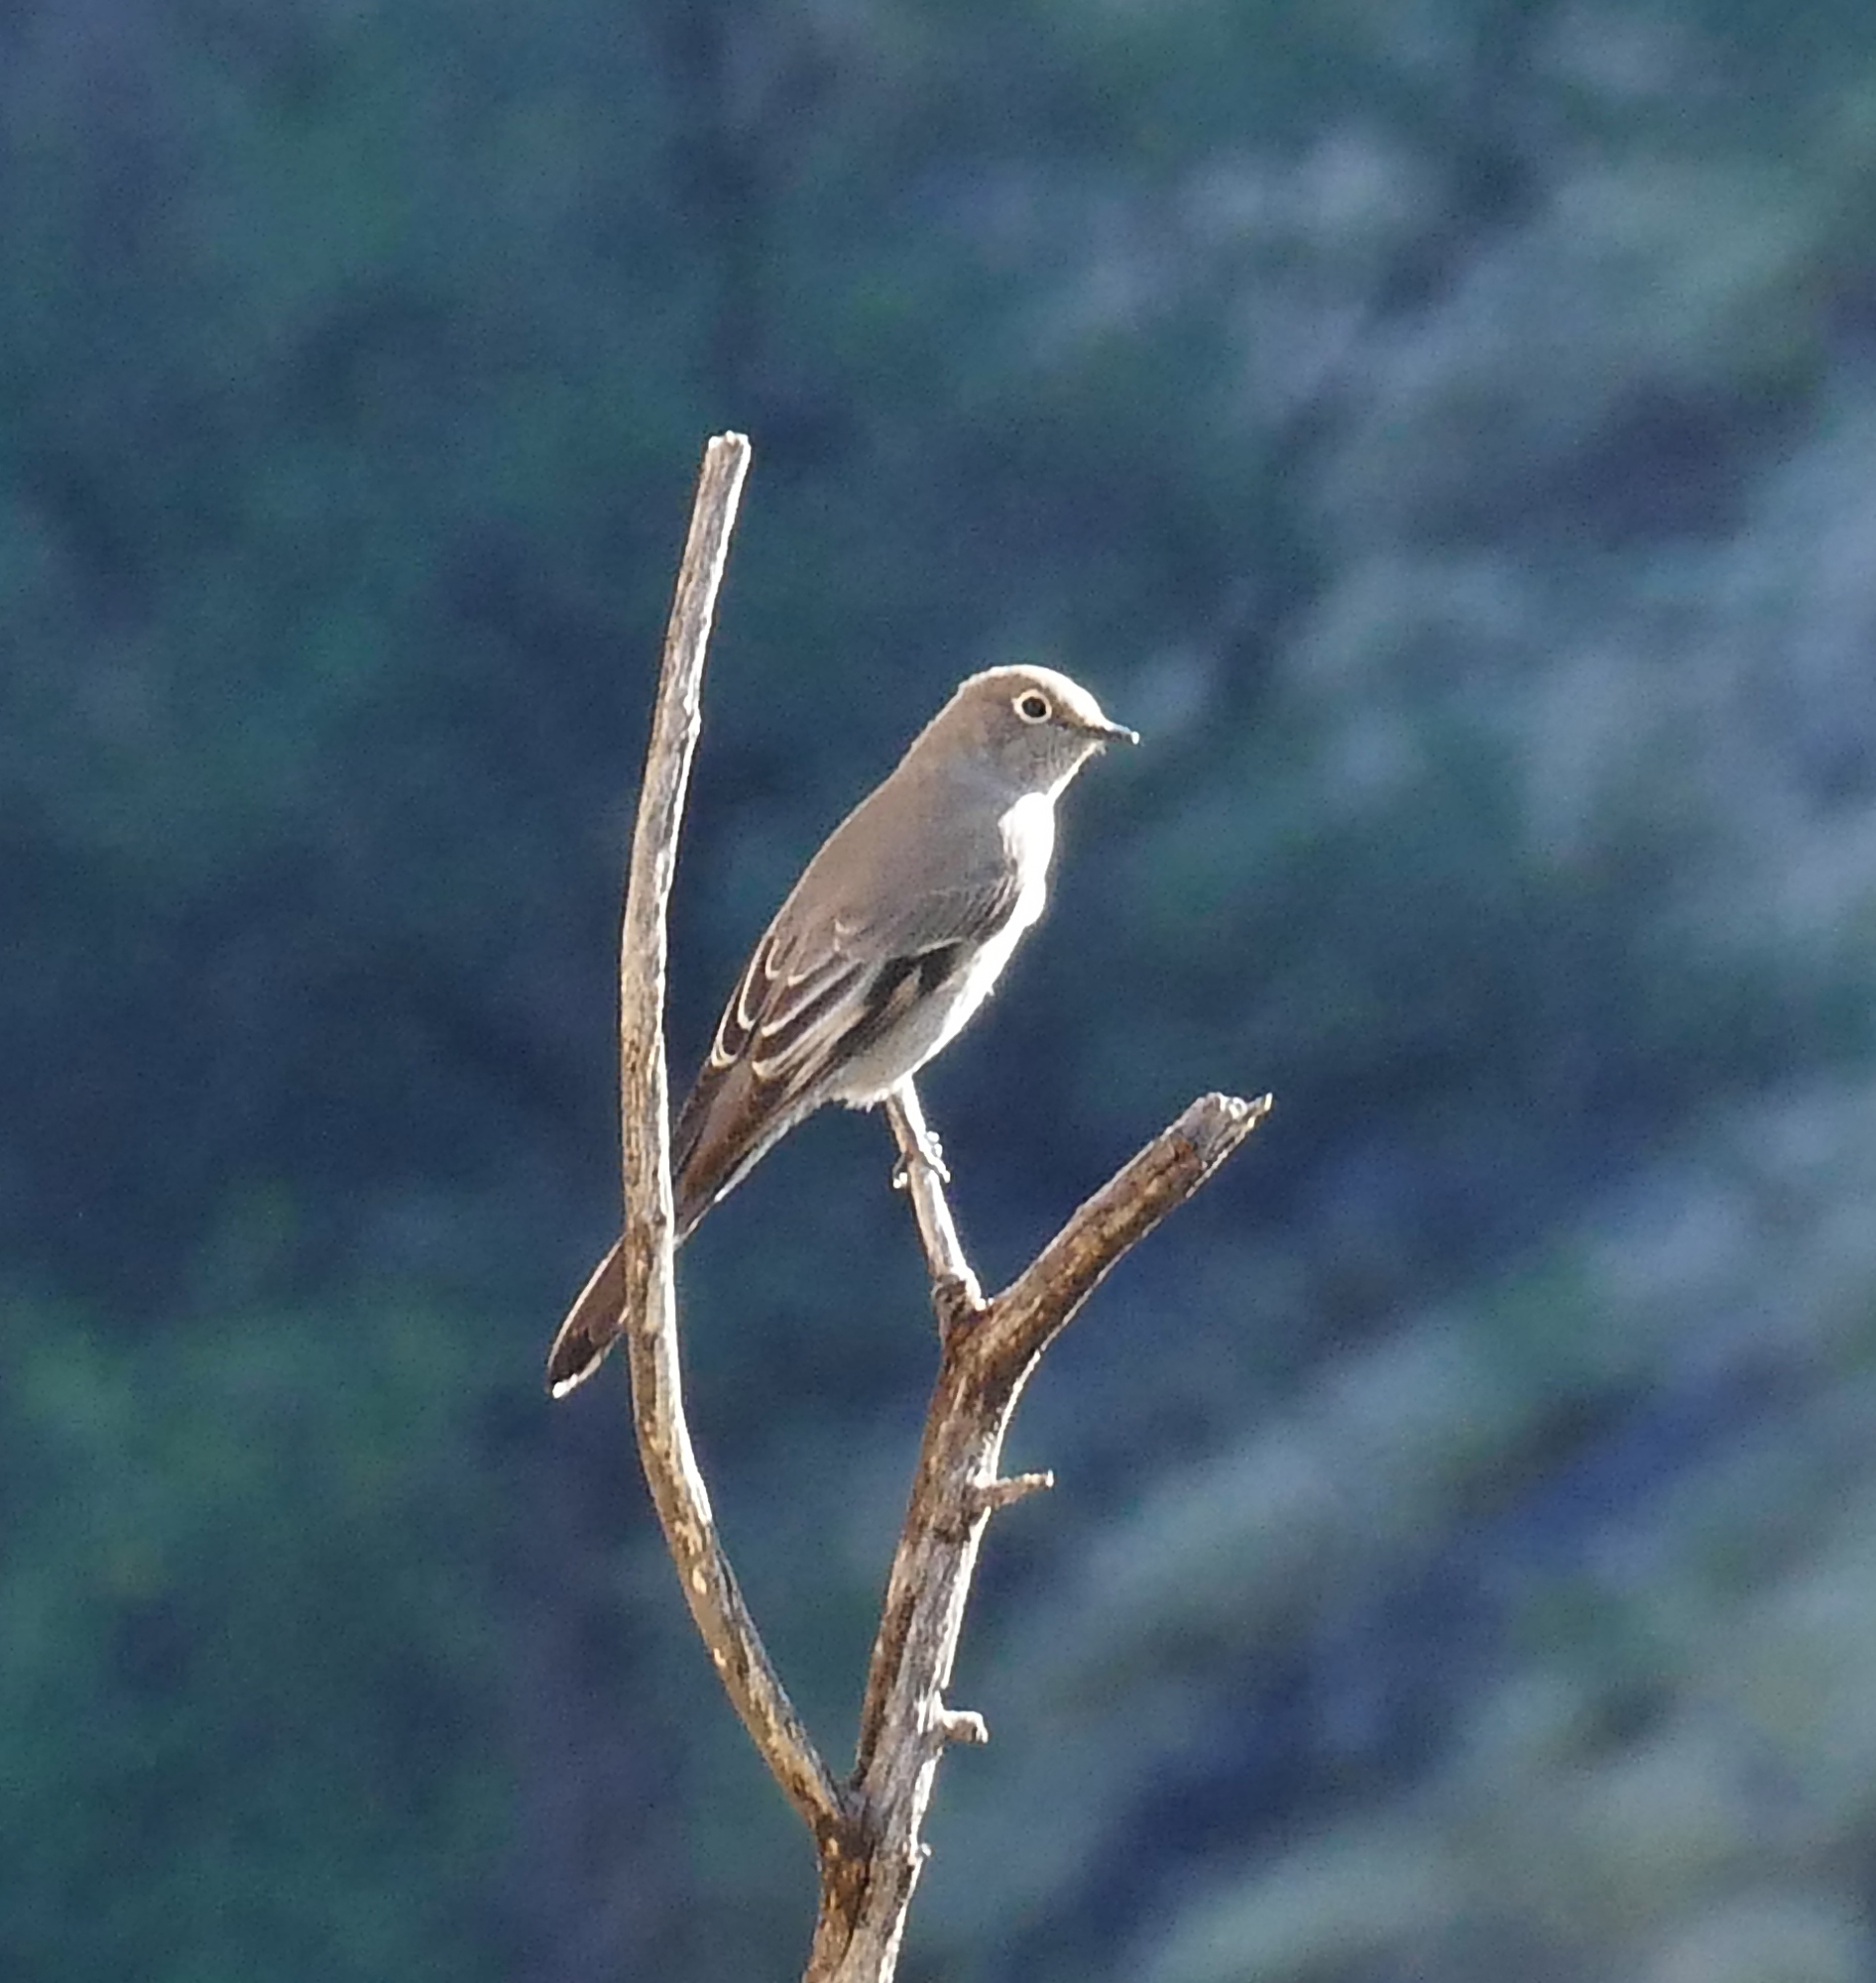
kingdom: Animalia
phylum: Chordata
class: Aves
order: Passeriformes
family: Turdidae
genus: Myadestes
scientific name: Myadestes townsendi
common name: Townsend's solitaire
